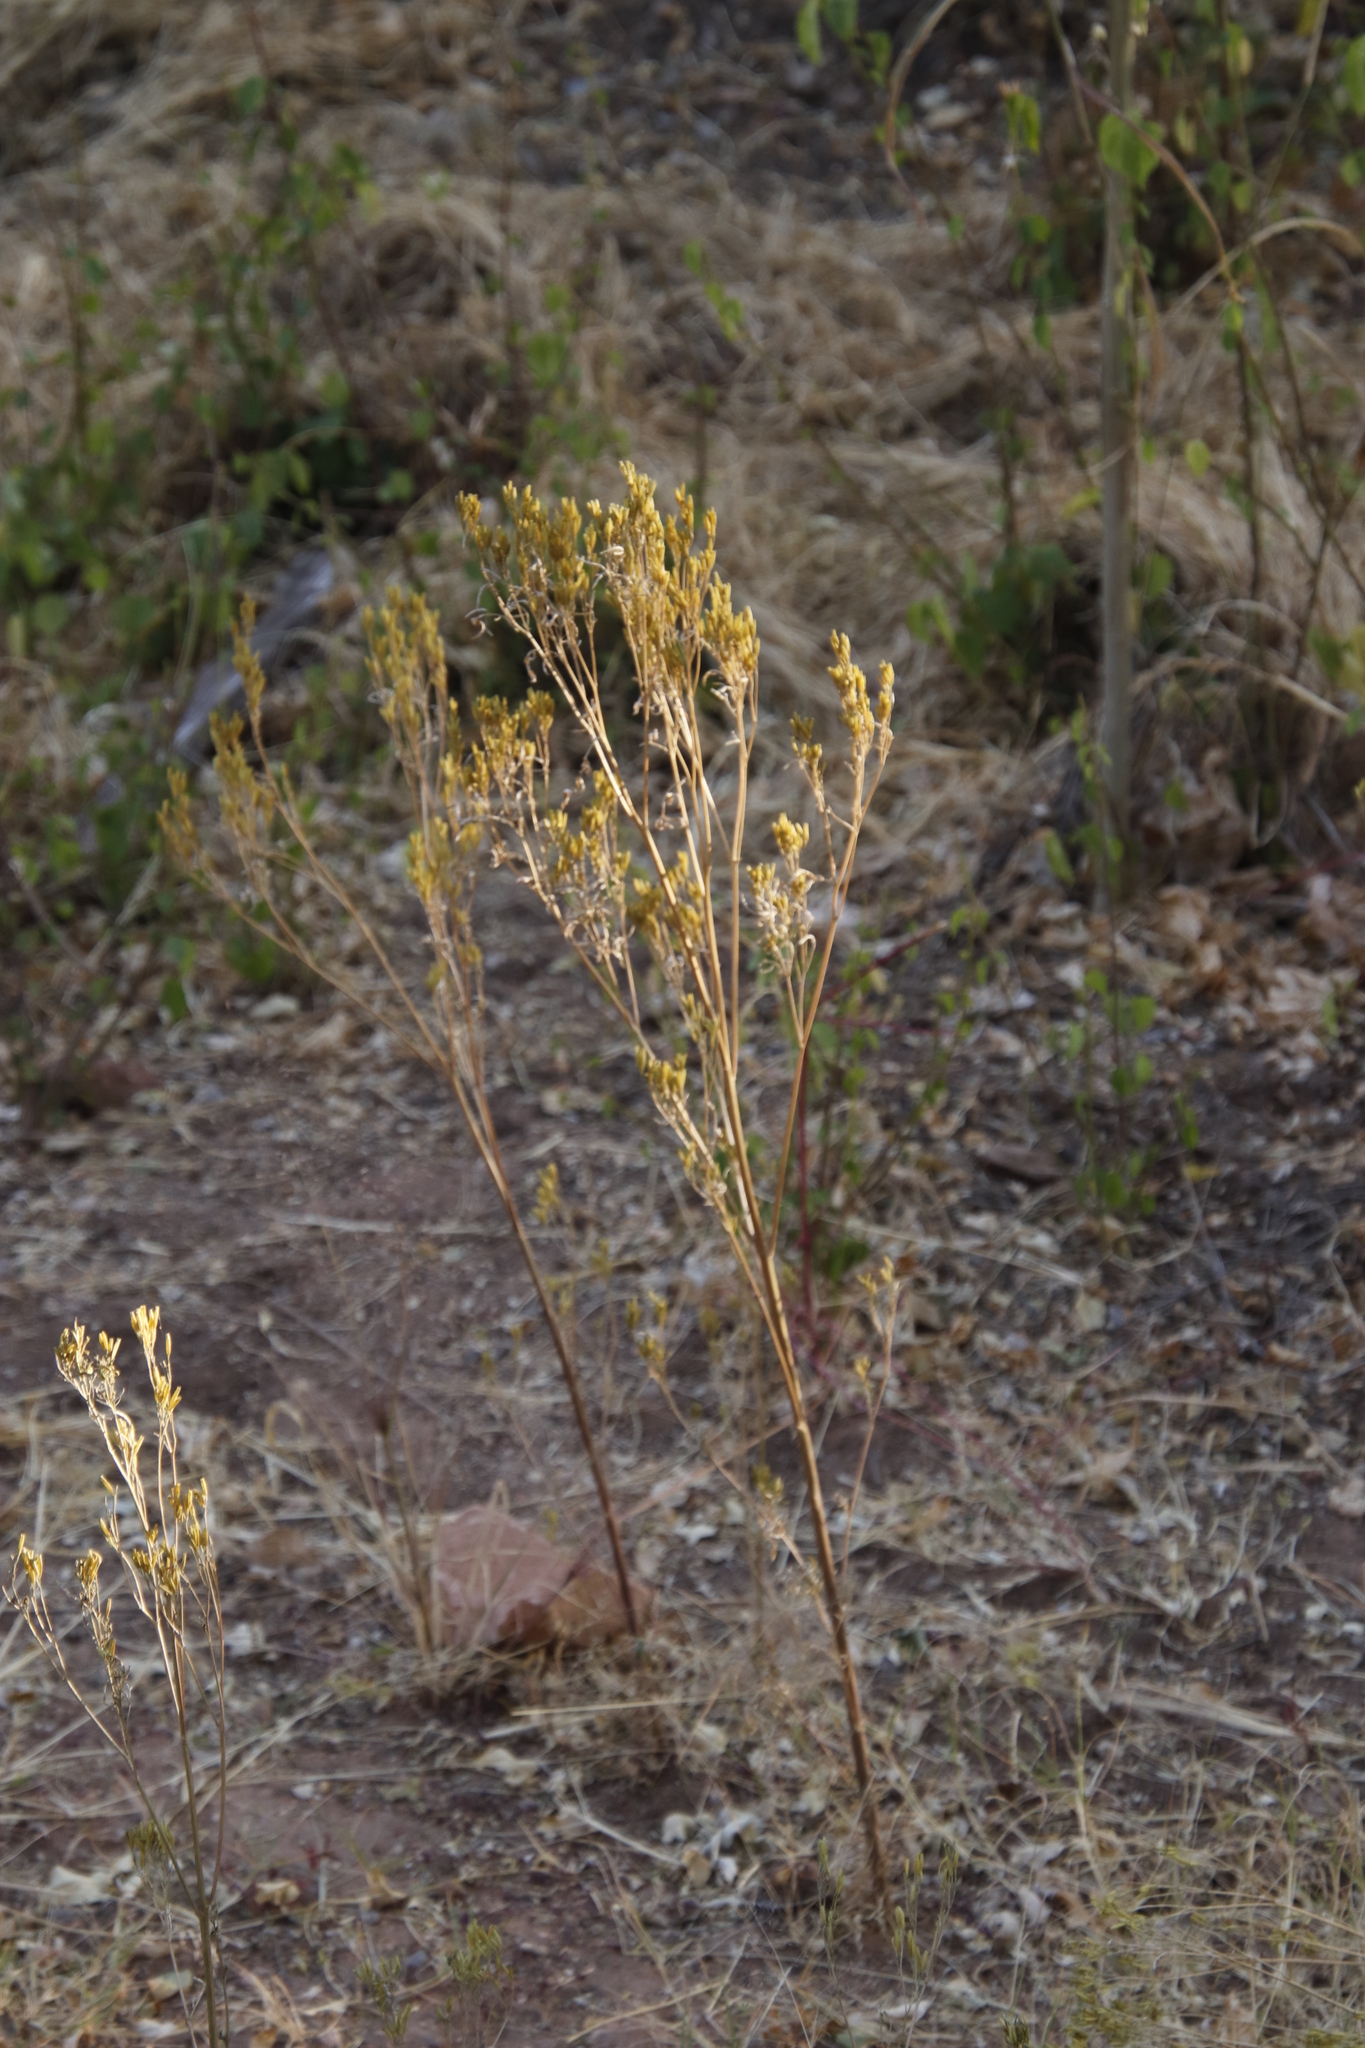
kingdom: Plantae
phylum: Tracheophyta
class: Magnoliopsida
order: Asterales
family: Asteraceae
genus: Tagetes
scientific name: Tagetes minuta
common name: Muster john henry
